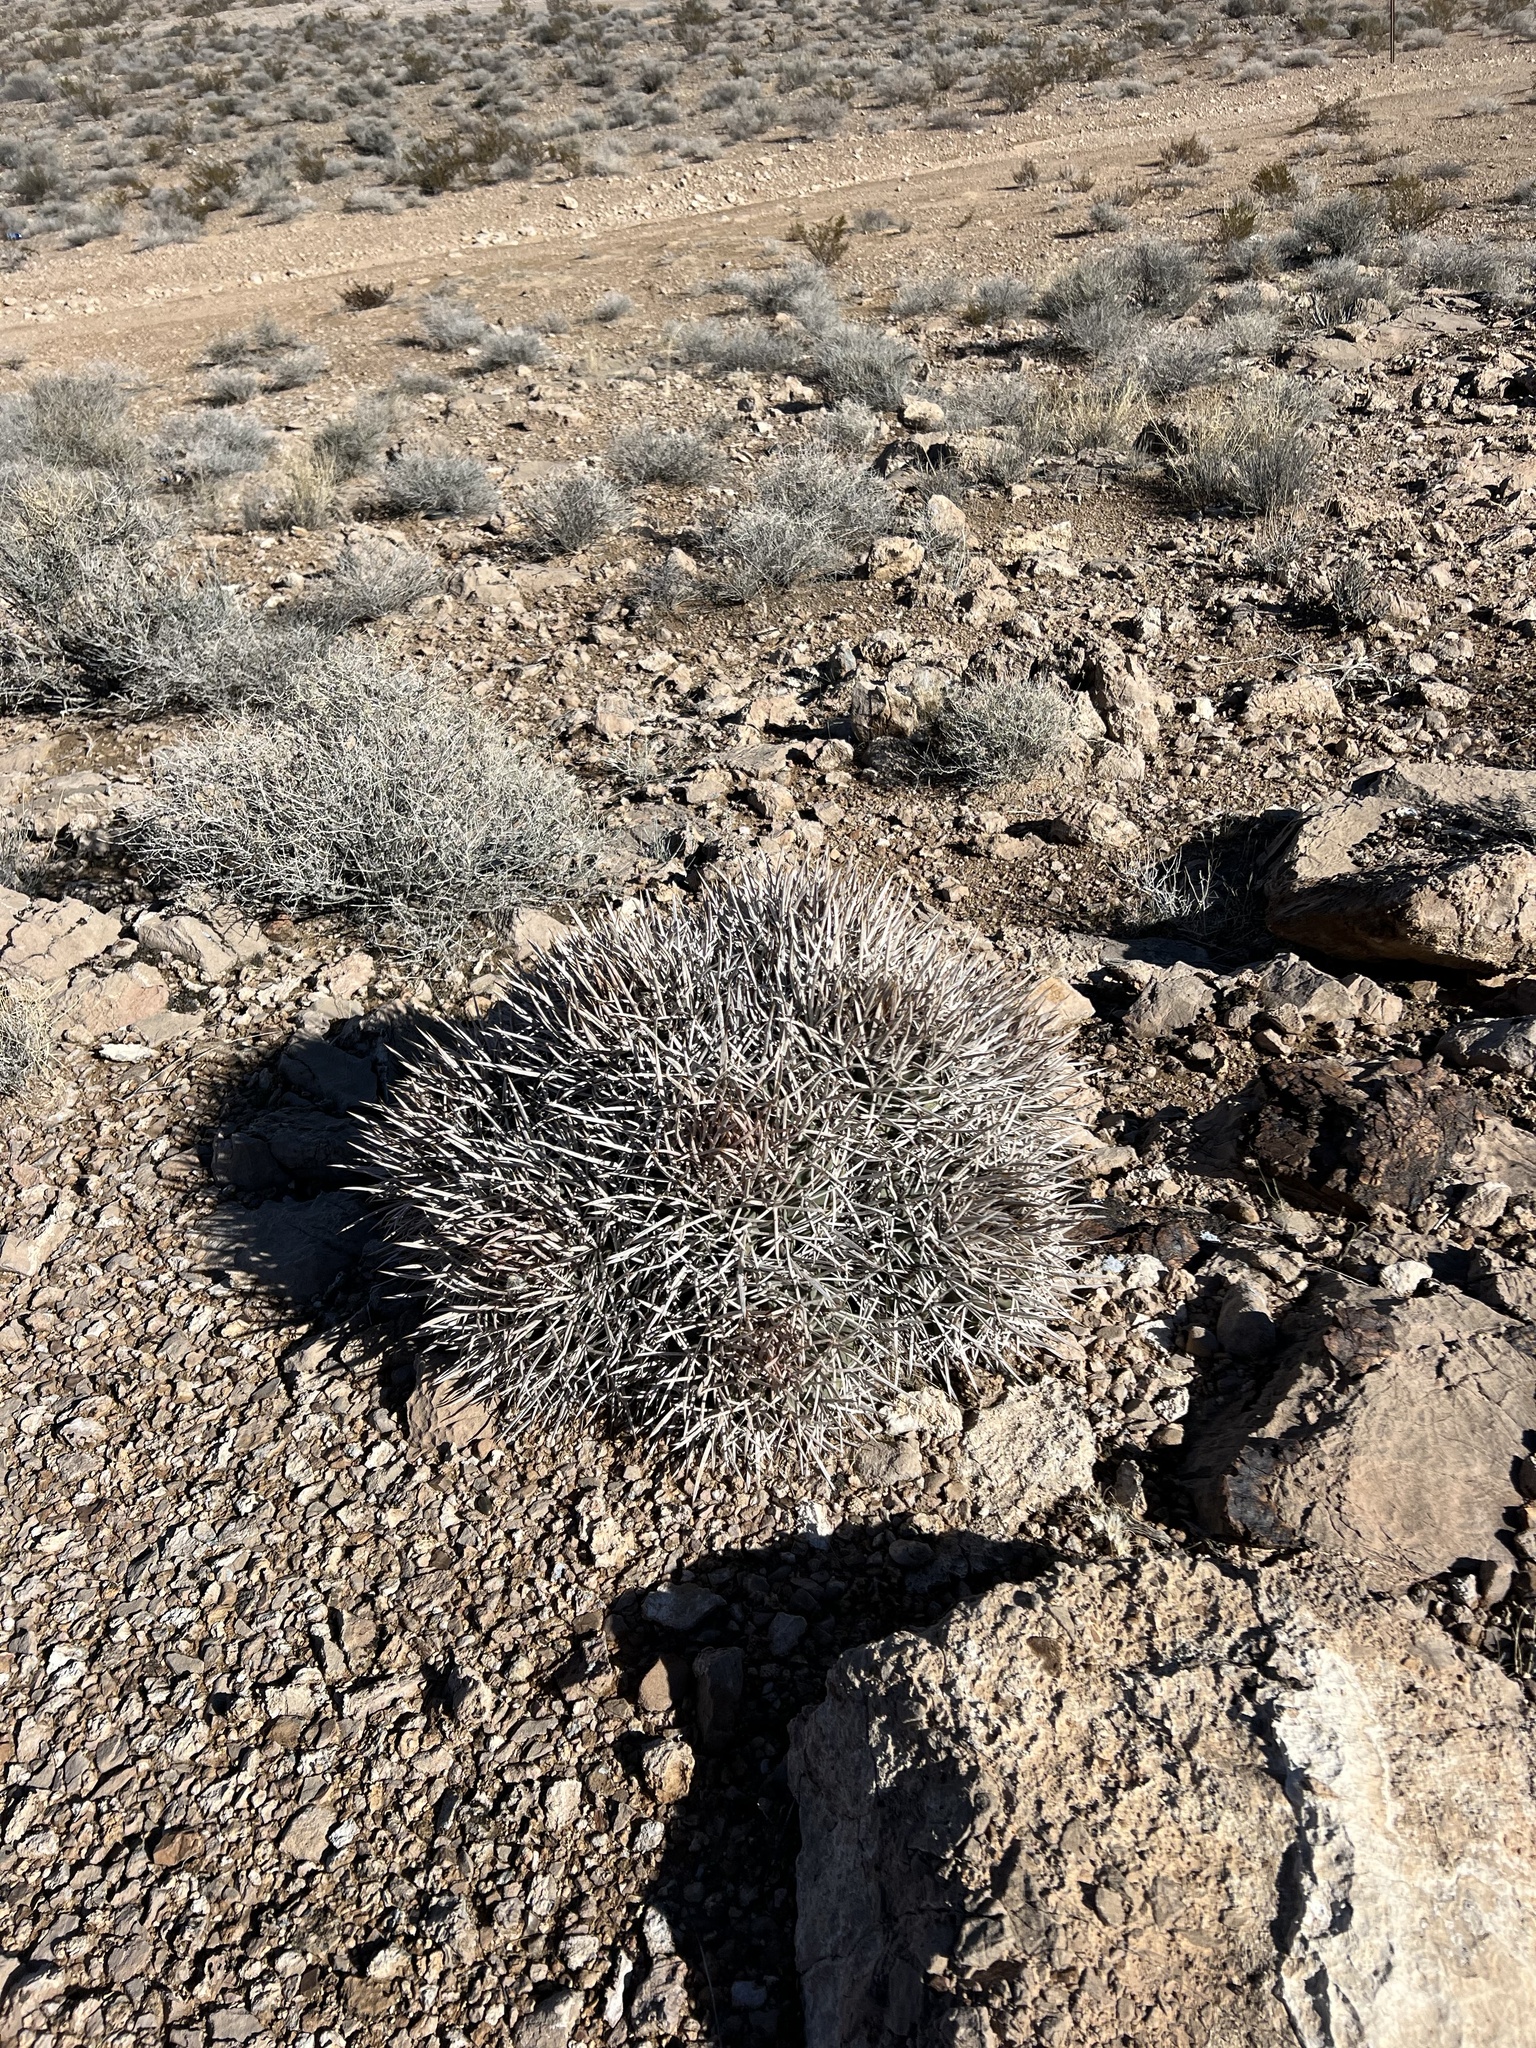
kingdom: Plantae
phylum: Tracheophyta
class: Magnoliopsida
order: Caryophyllales
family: Cactaceae
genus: Echinocactus
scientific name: Echinocactus polycephalus
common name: Cottontop cactus
